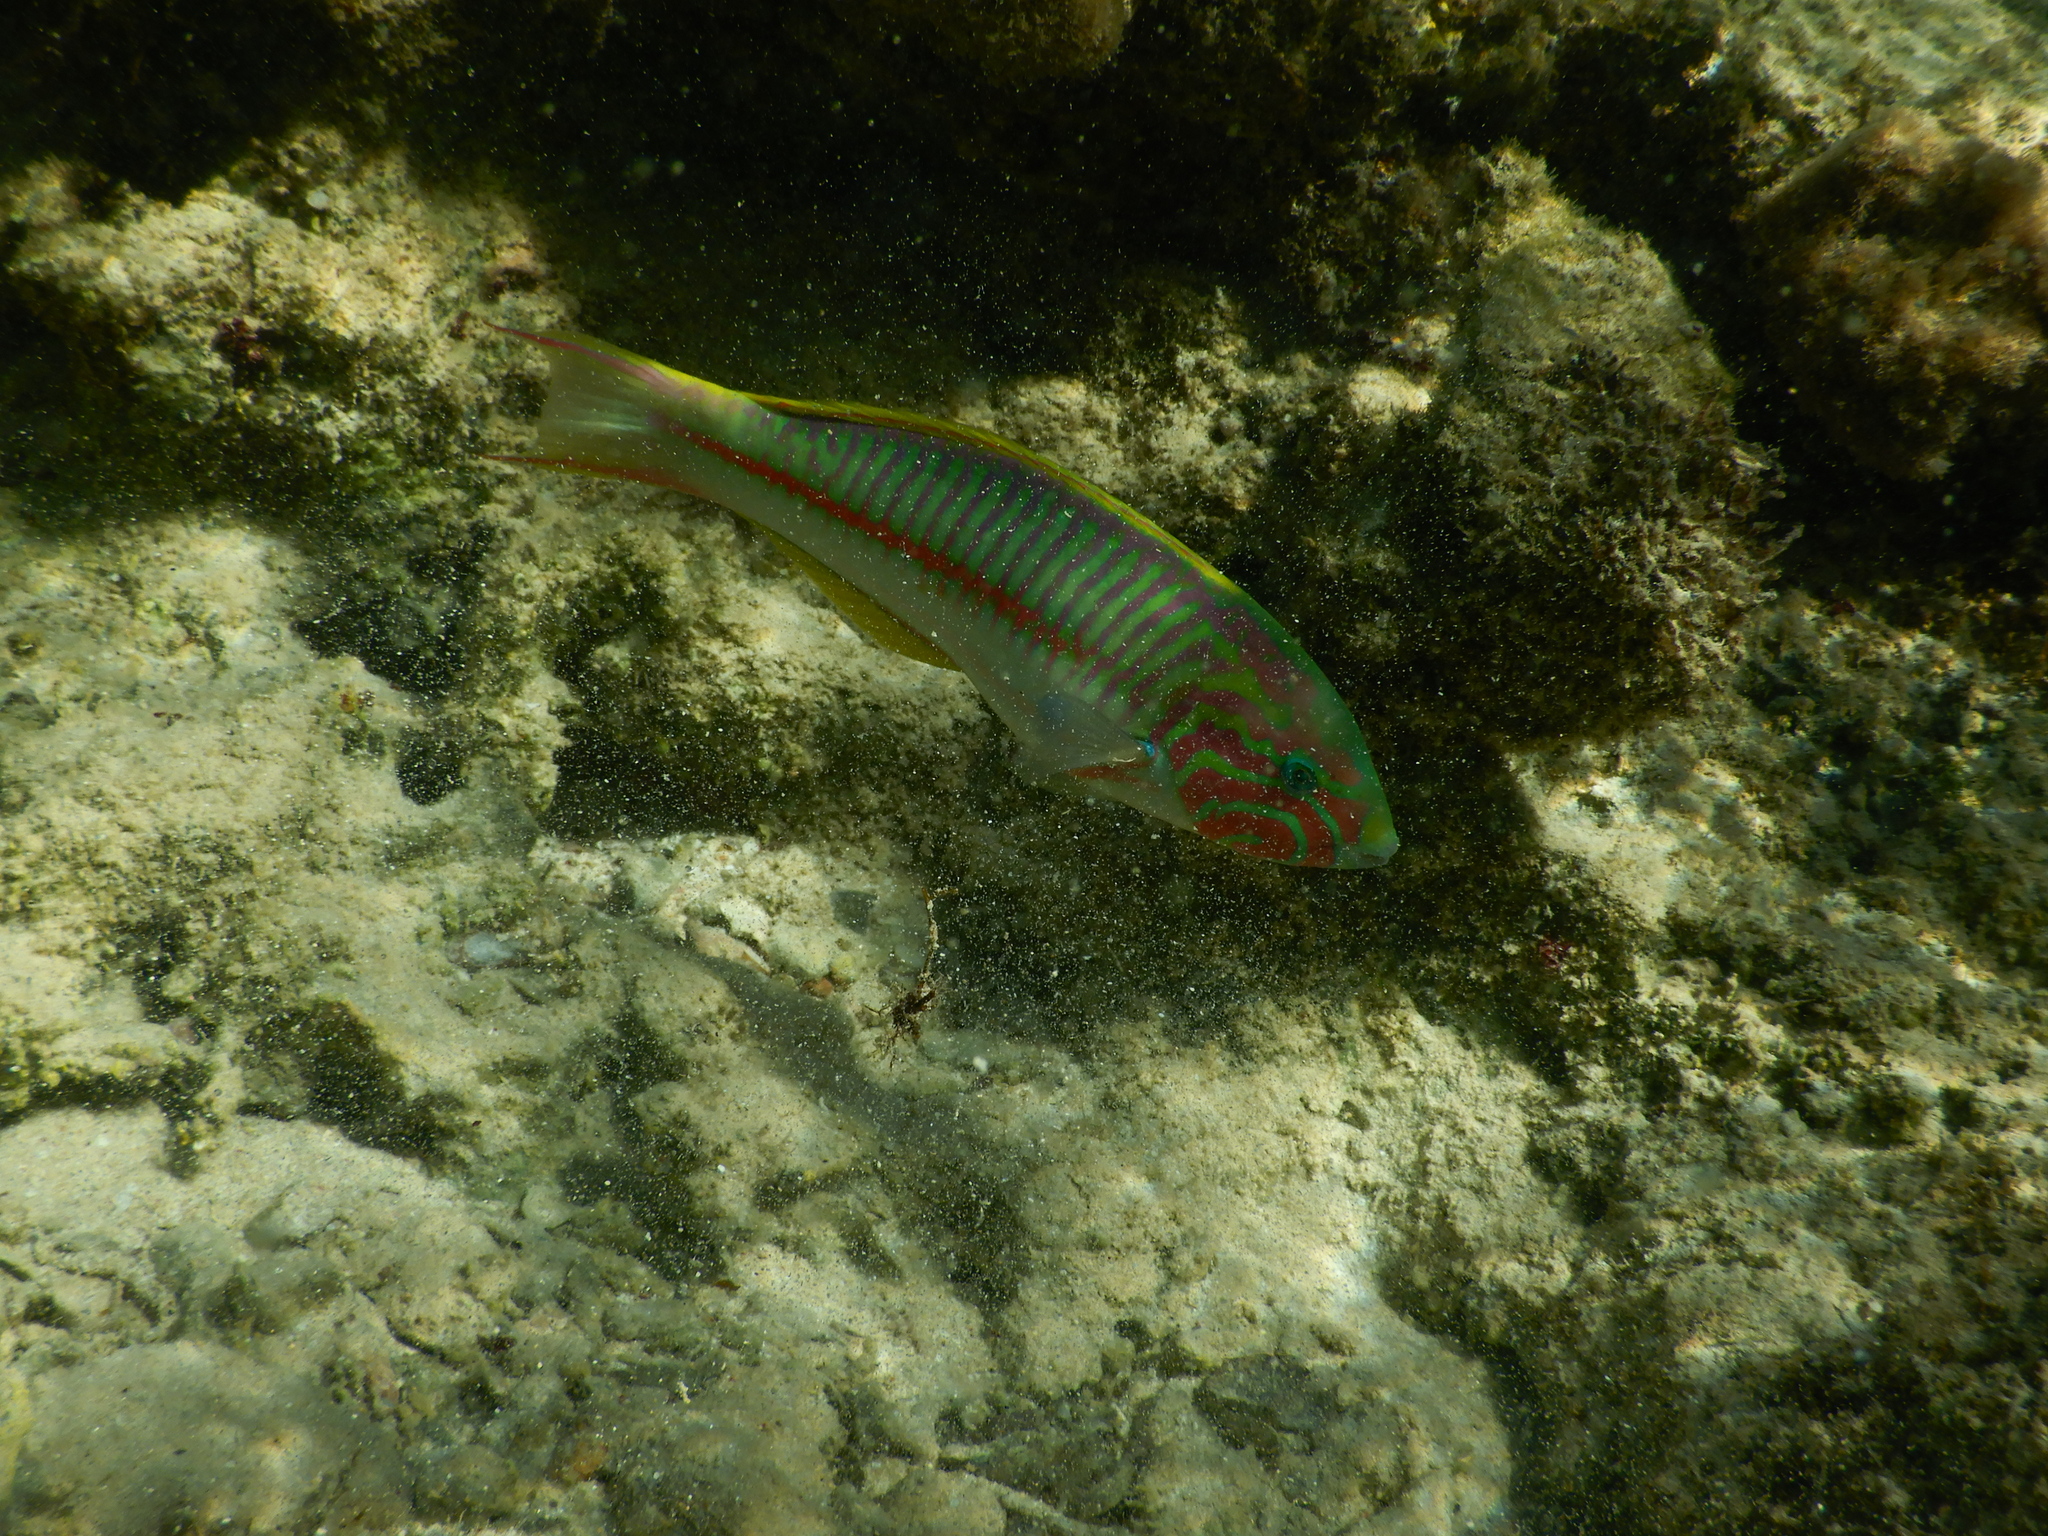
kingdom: Animalia
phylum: Chordata
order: Perciformes
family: Labridae
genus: Thalassoma
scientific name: Thalassoma rueppellii
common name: Klunzinger's wrasse
